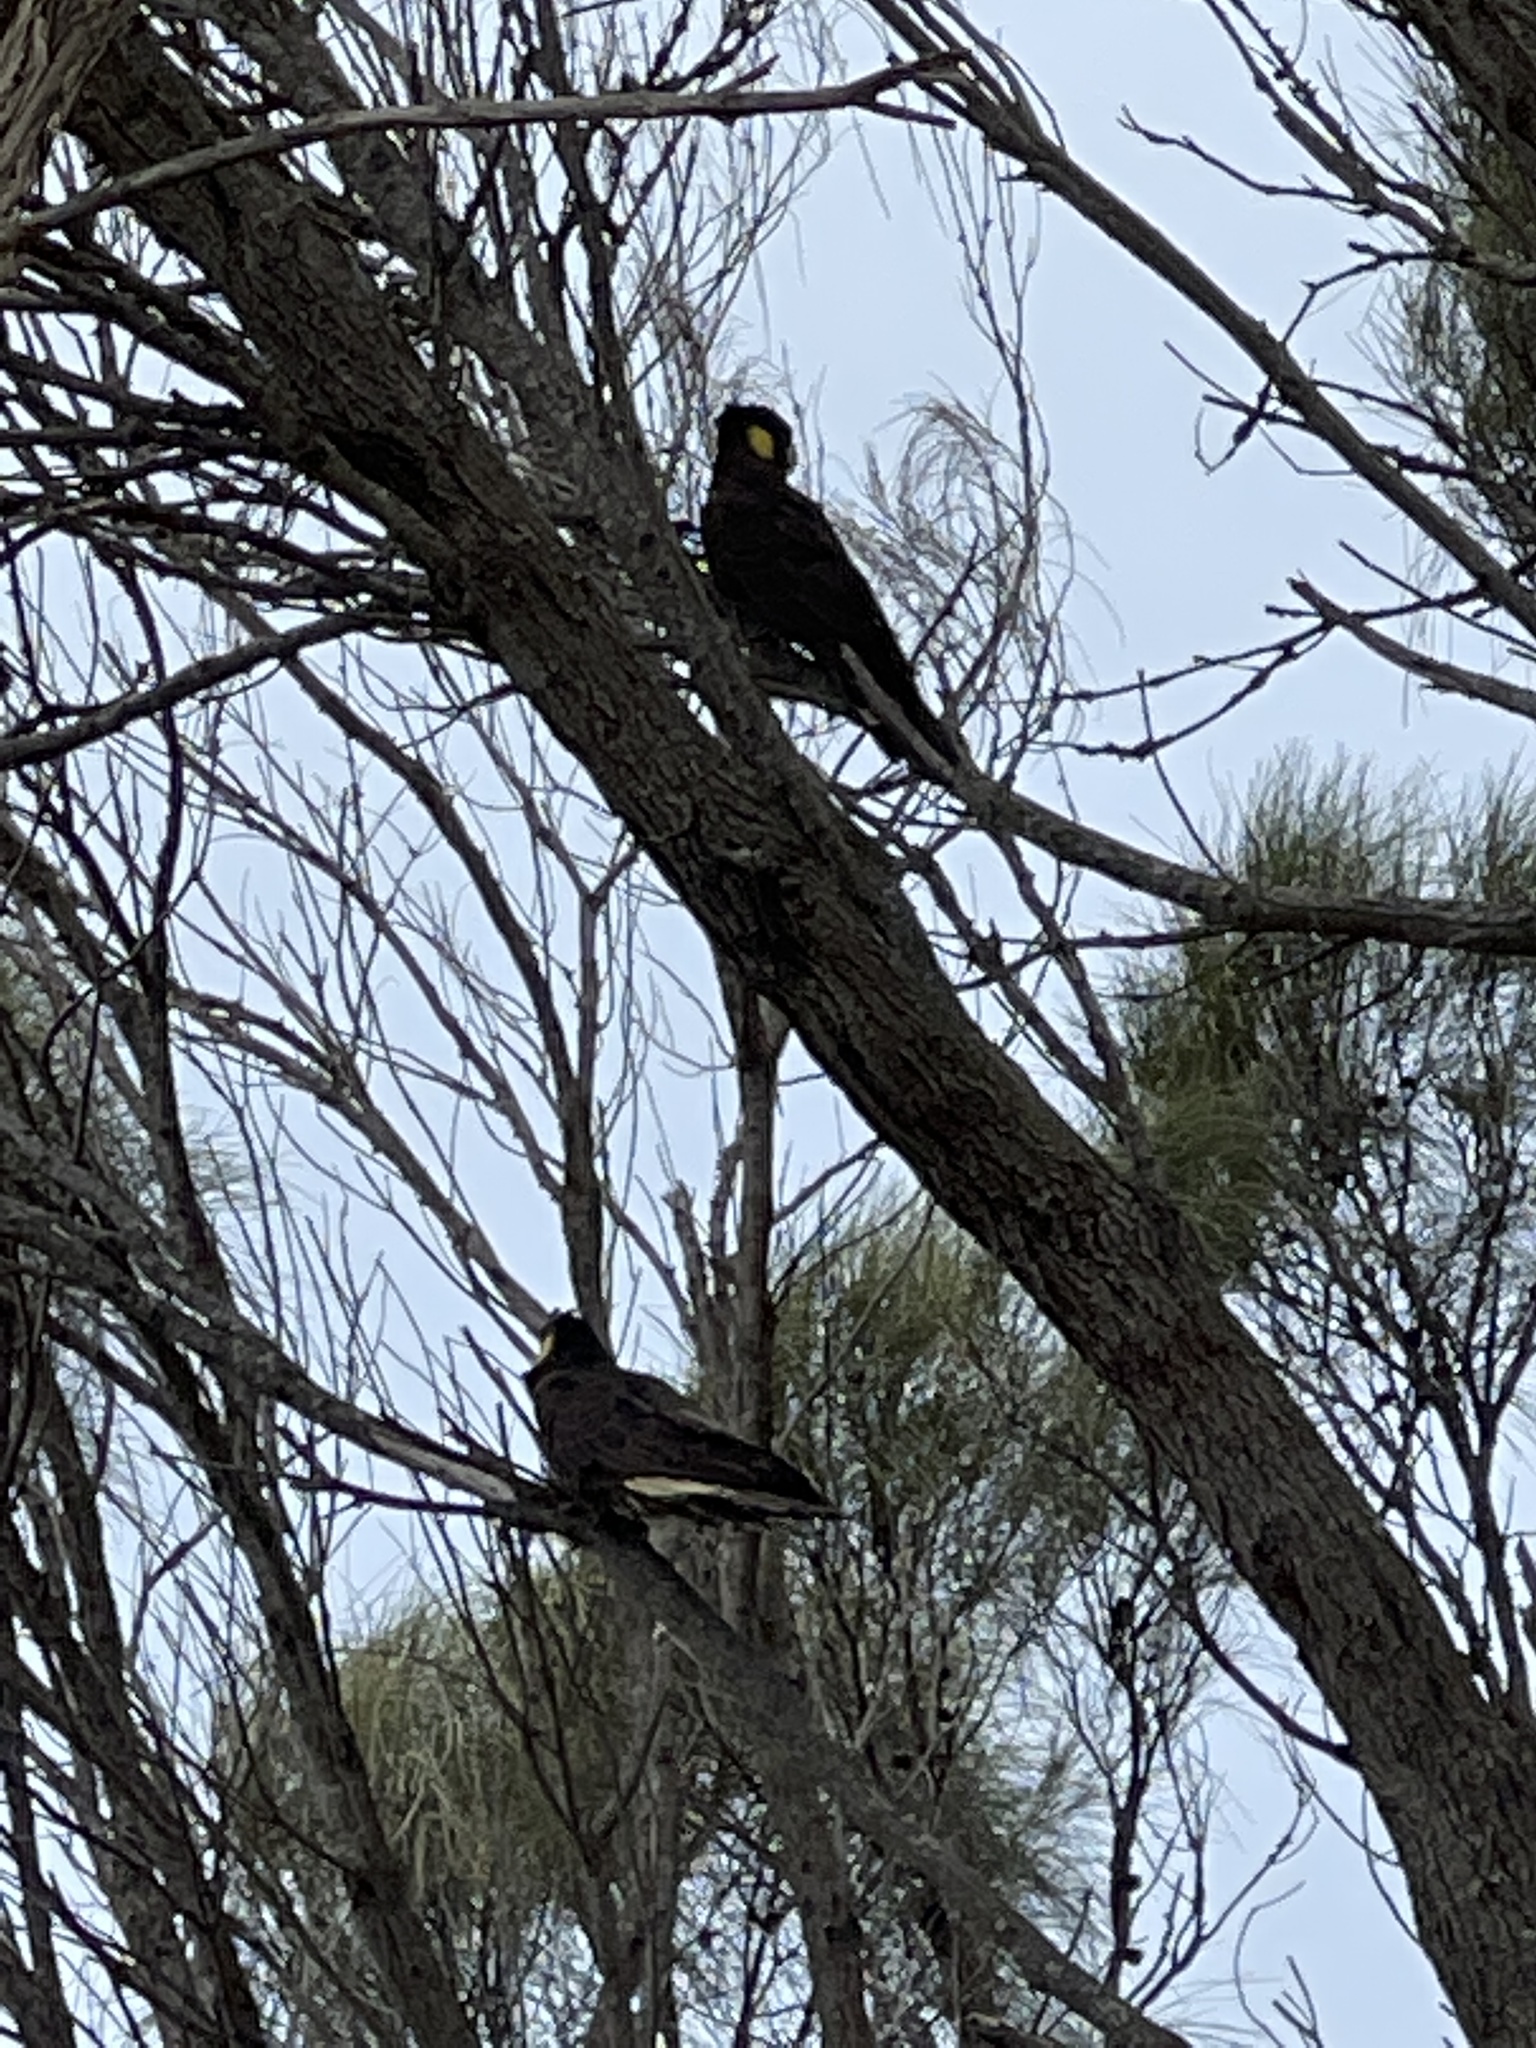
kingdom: Animalia
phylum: Chordata
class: Aves
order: Psittaciformes
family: Cacatuidae
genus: Zanda
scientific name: Zanda funerea
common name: Yellow-tailed black-cockatoo
